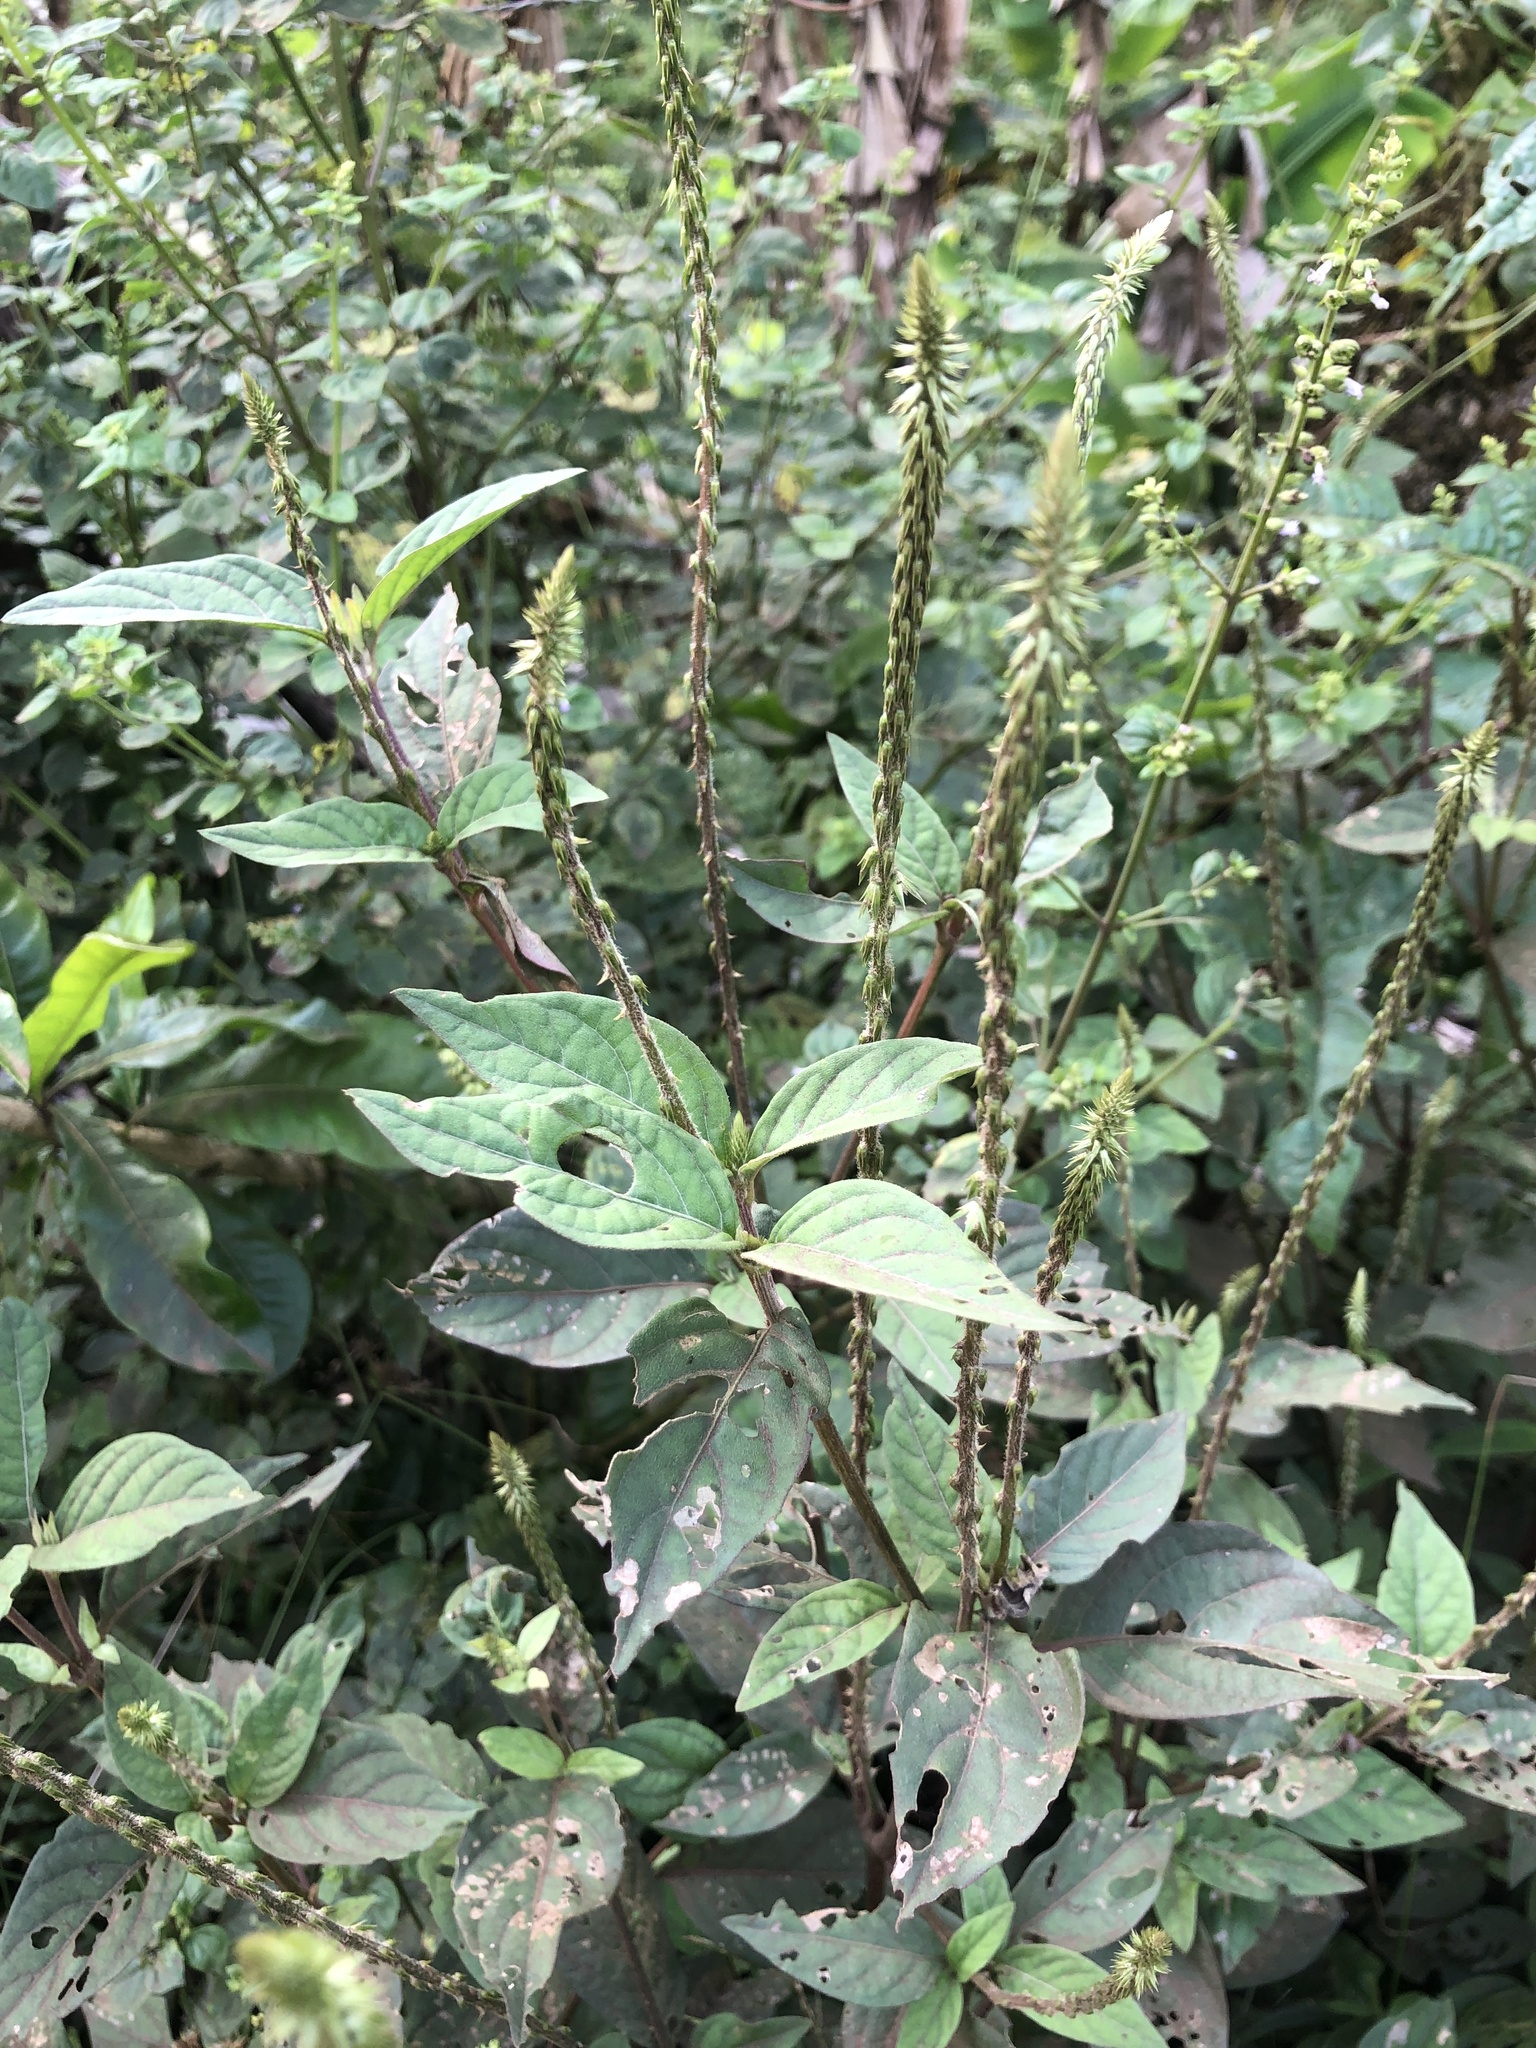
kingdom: Plantae
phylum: Tracheophyta
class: Magnoliopsida
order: Caryophyllales
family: Amaranthaceae
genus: Achyranthes
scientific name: Achyranthes aspera
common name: Devil's horsewhip
